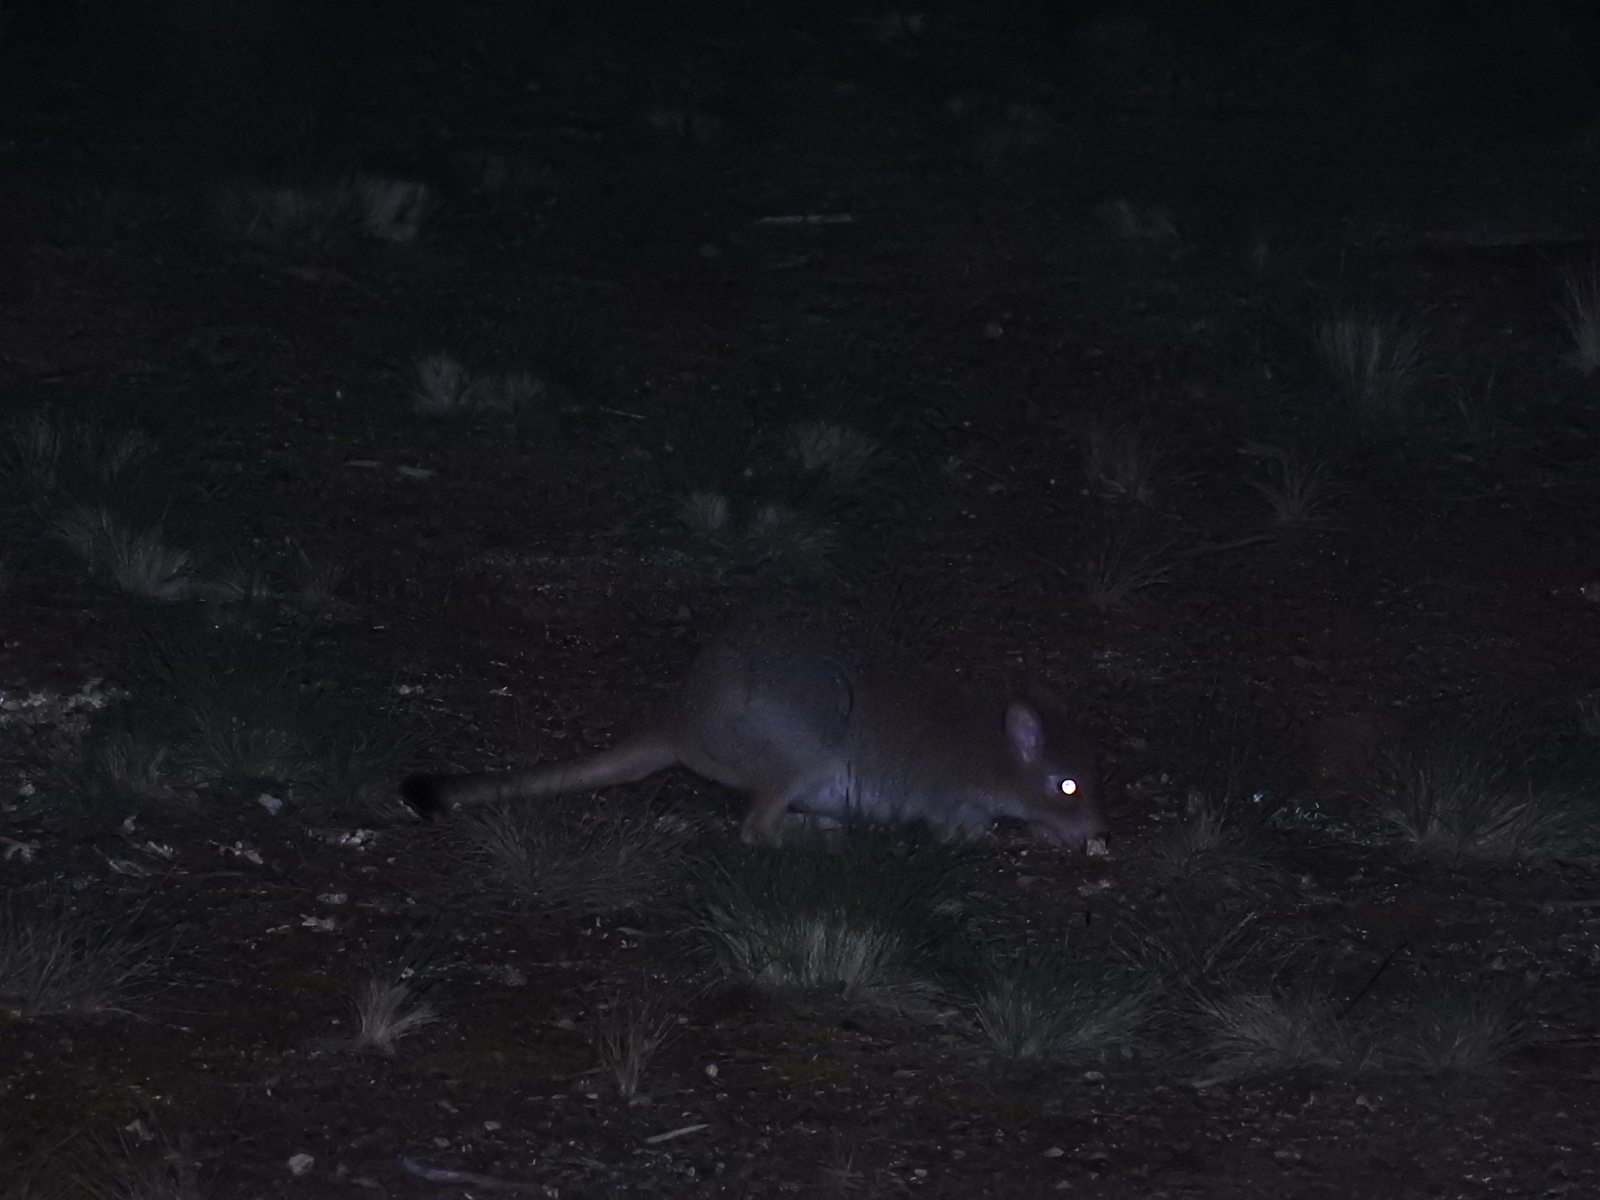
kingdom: Animalia
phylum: Chordata
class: Mammalia
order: Diprotodontia
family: Potoroidae
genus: Bettongia
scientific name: Bettongia gaimardi
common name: Eastern bettong
